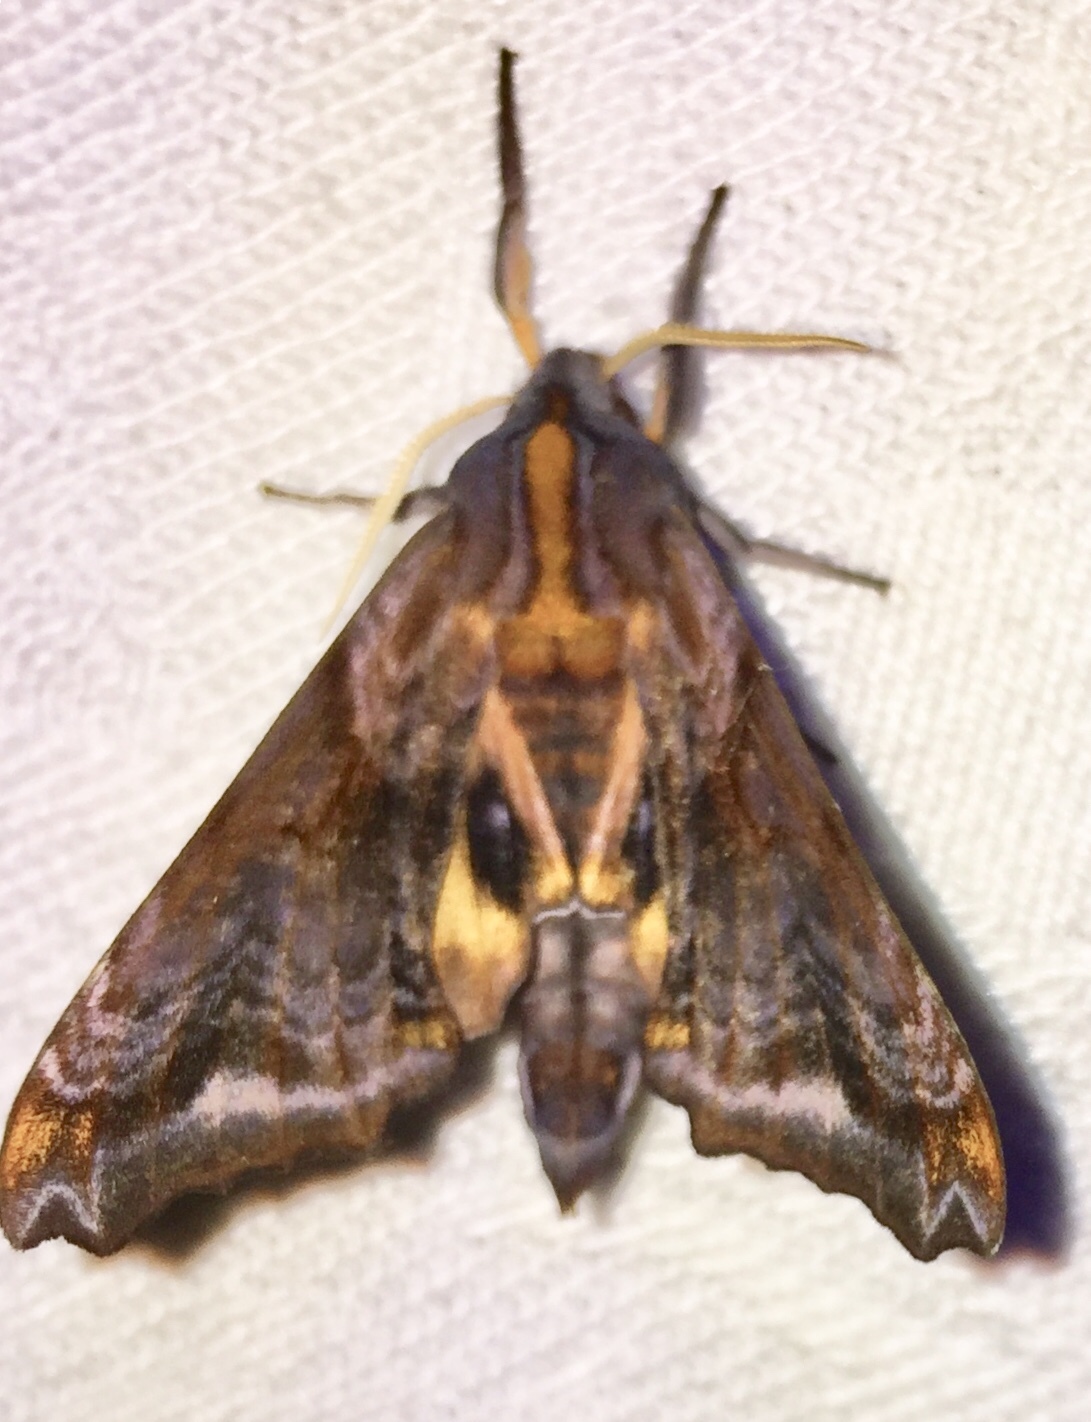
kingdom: Animalia
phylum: Arthropoda
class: Insecta
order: Lepidoptera
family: Sphingidae
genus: Paonias
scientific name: Paonias myops
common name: Small-eyed sphinx
